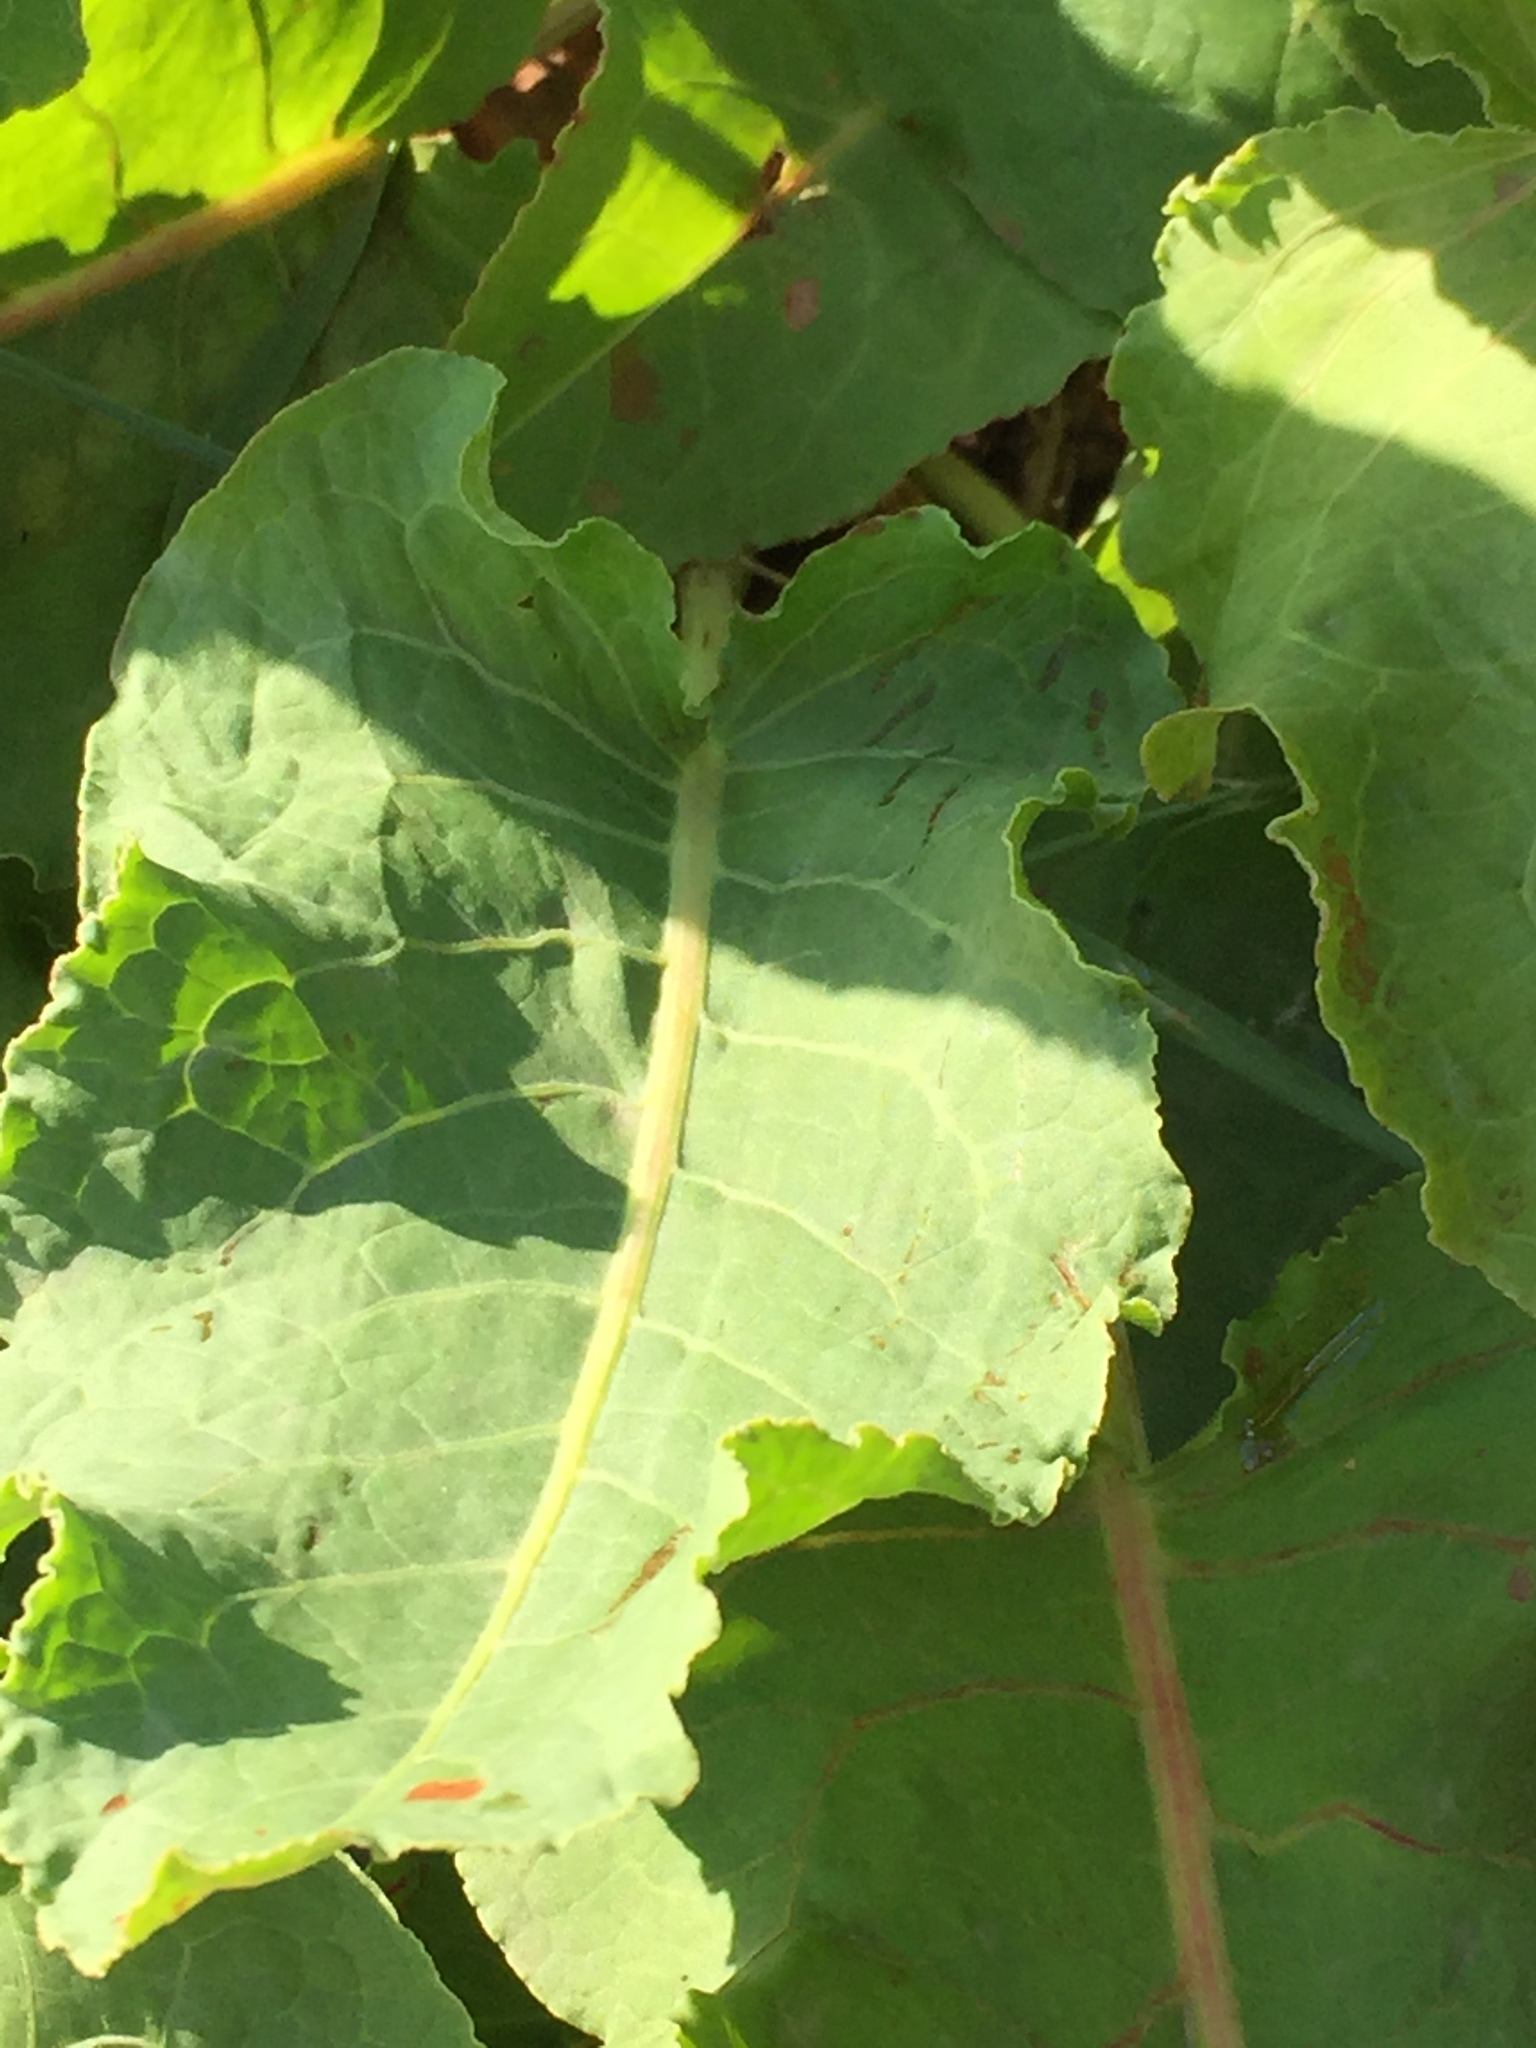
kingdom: Plantae
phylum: Tracheophyta
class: Magnoliopsida
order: Caryophyllales
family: Polygonaceae
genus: Rumex
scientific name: Rumex confertus
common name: Russian dock
